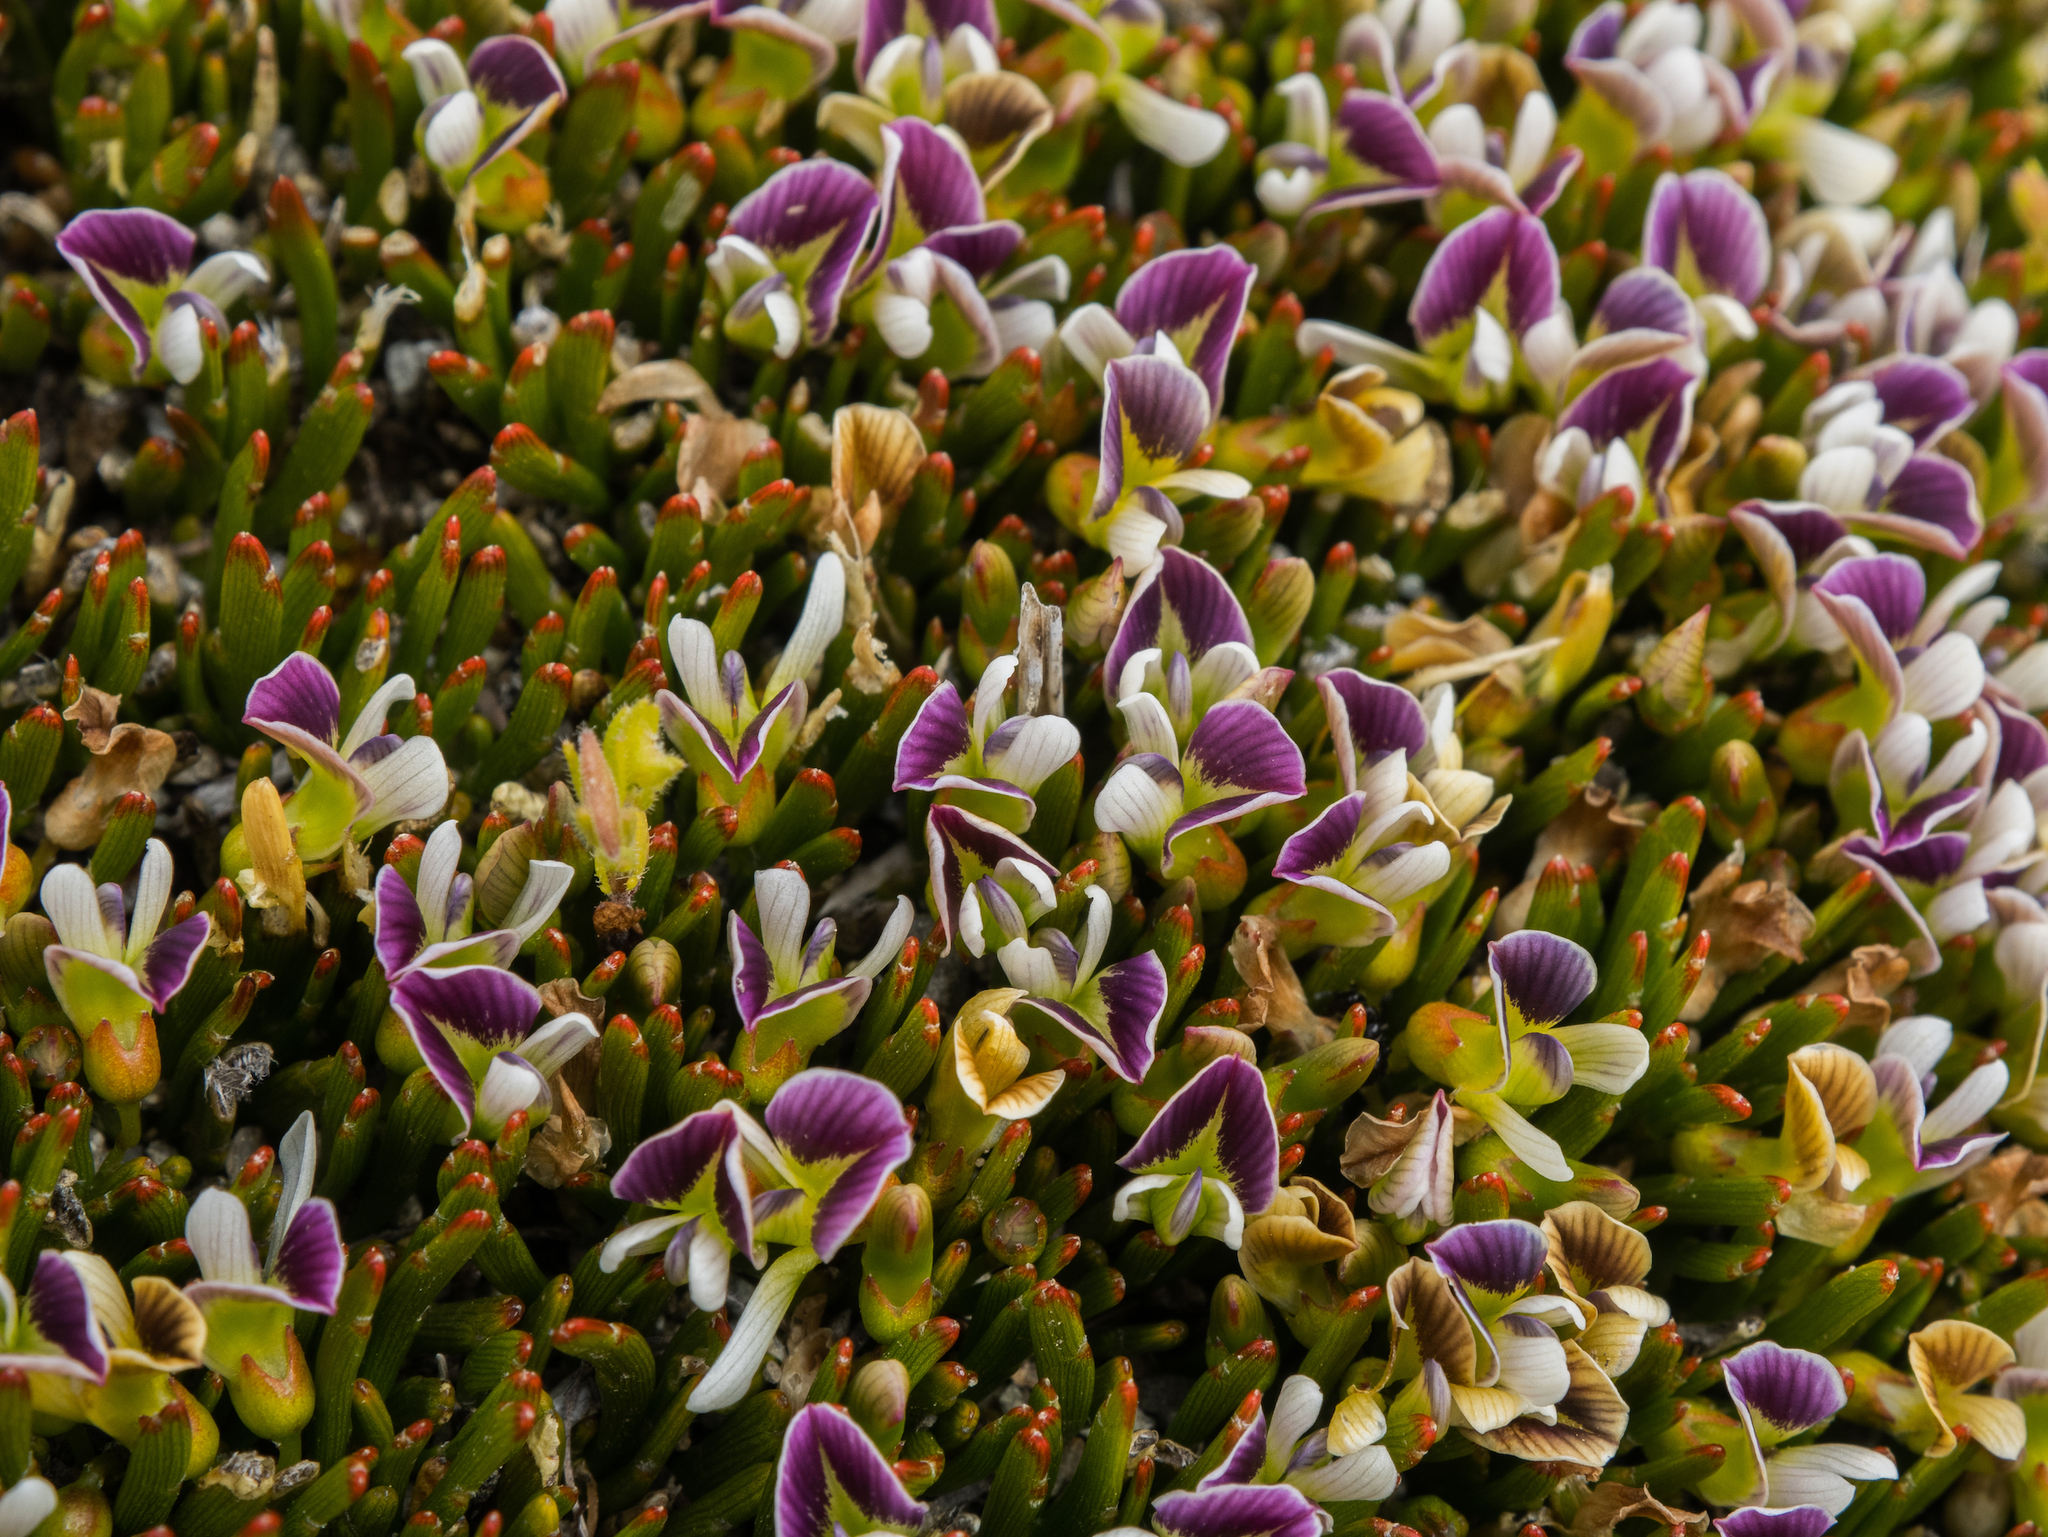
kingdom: Plantae
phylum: Tracheophyta
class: Magnoliopsida
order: Fabales
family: Fabaceae
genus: Carmichaelia
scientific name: Carmichaelia nana
